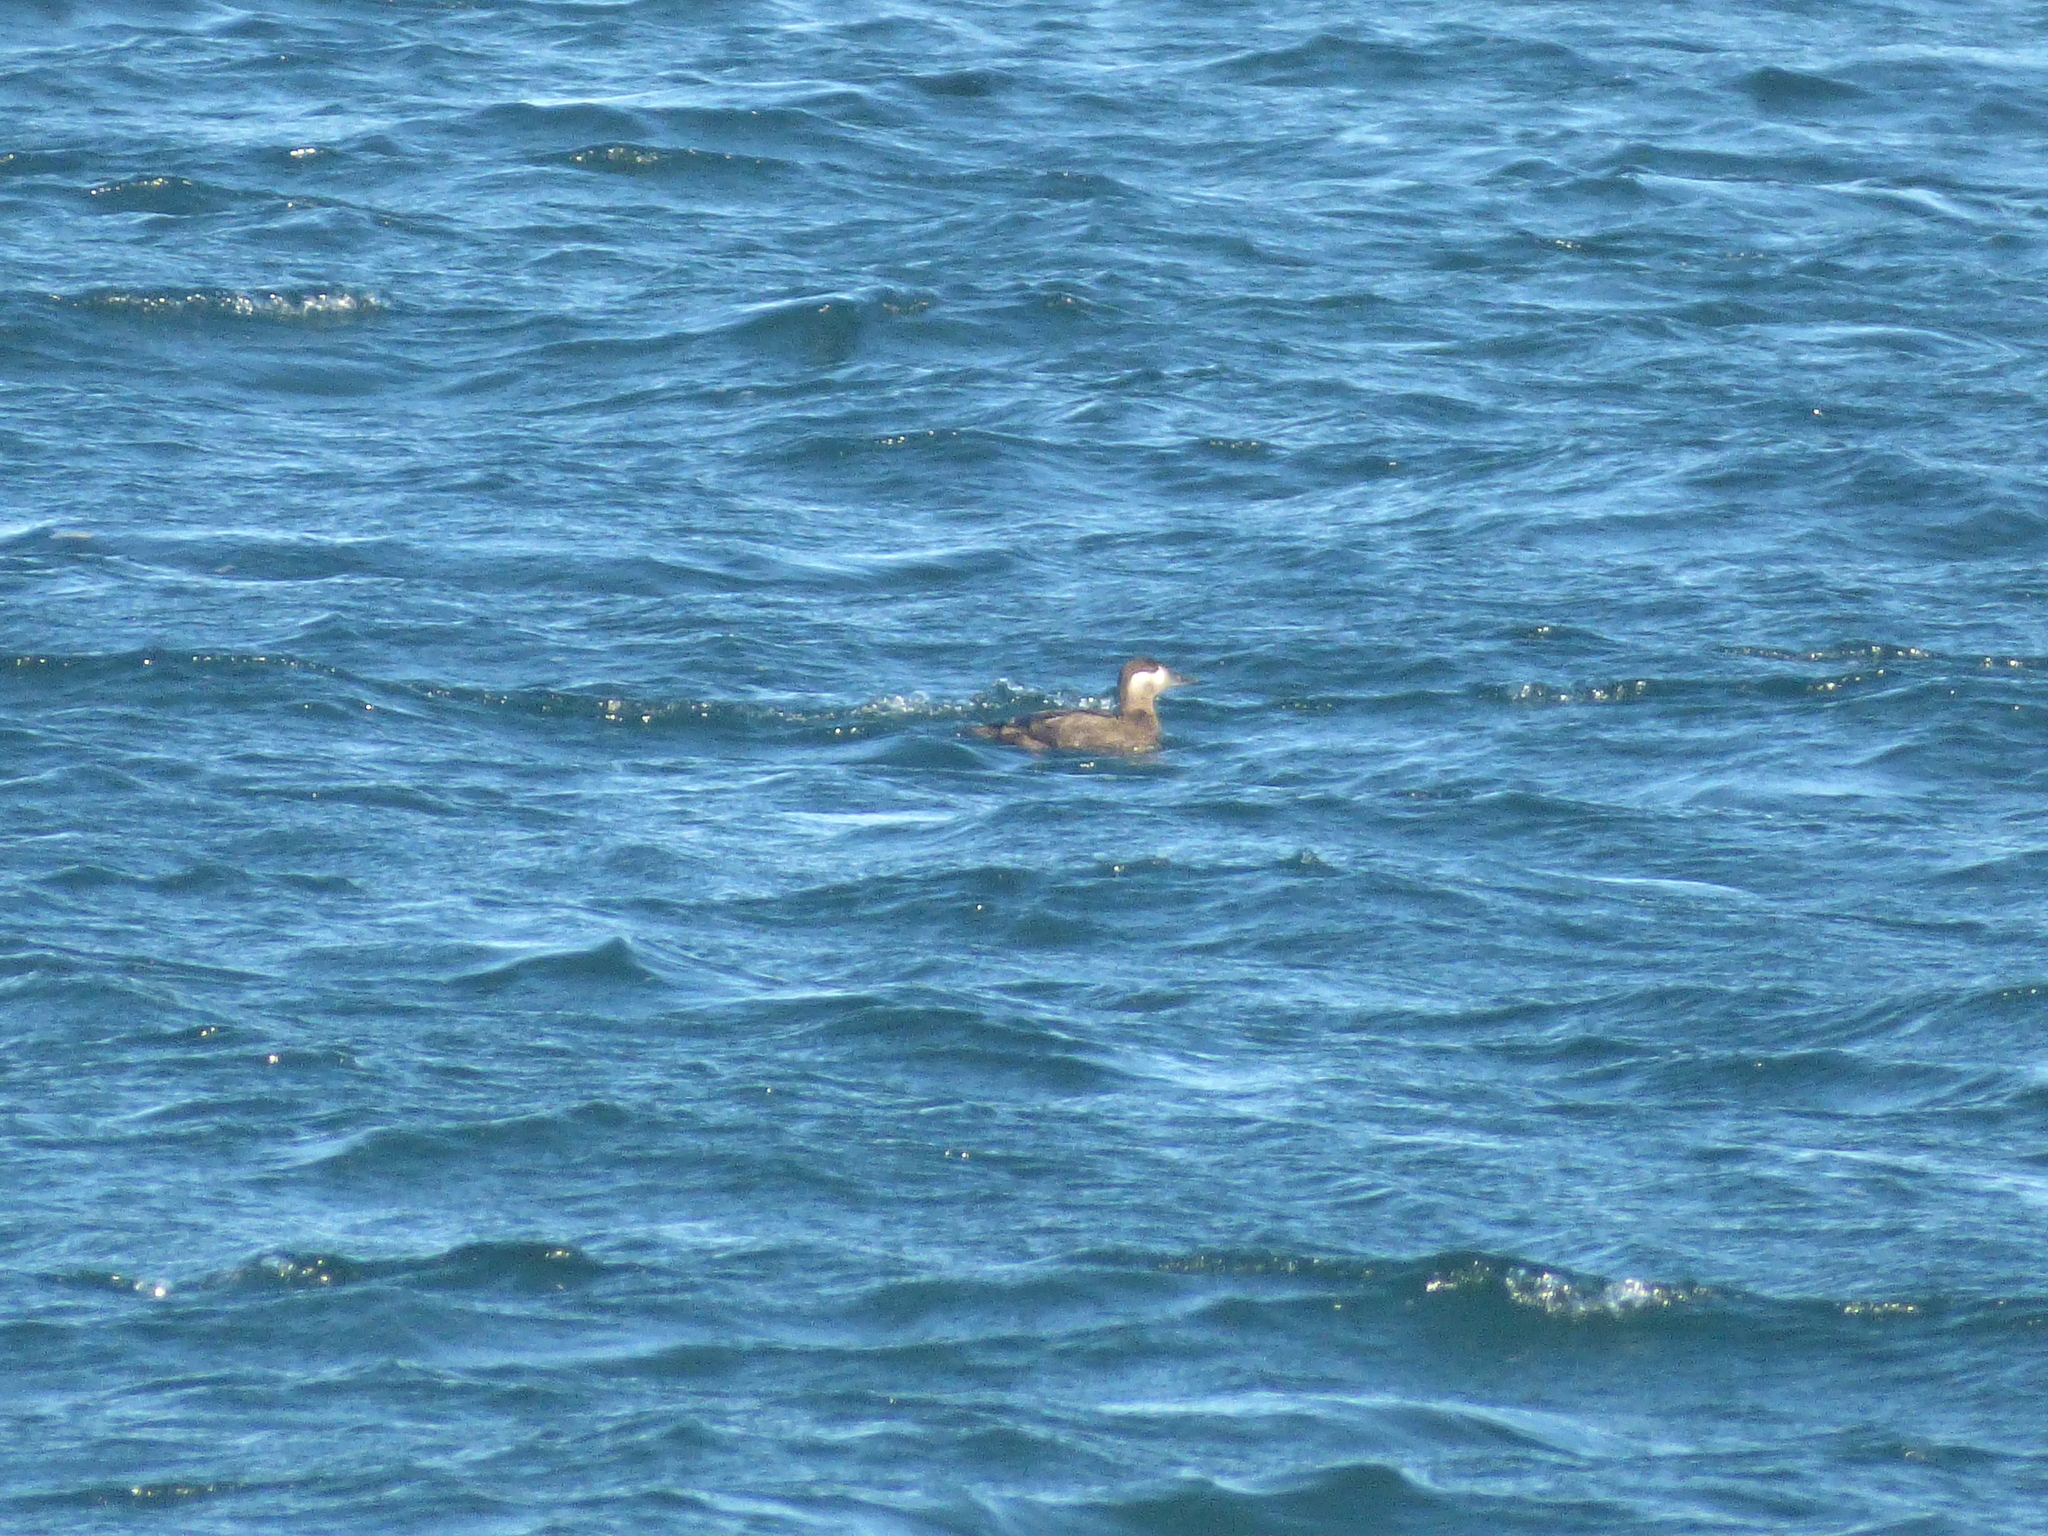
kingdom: Animalia
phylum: Chordata
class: Aves
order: Anseriformes
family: Anatidae
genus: Melanitta
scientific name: Melanitta perspicillata
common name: Surf scoter
